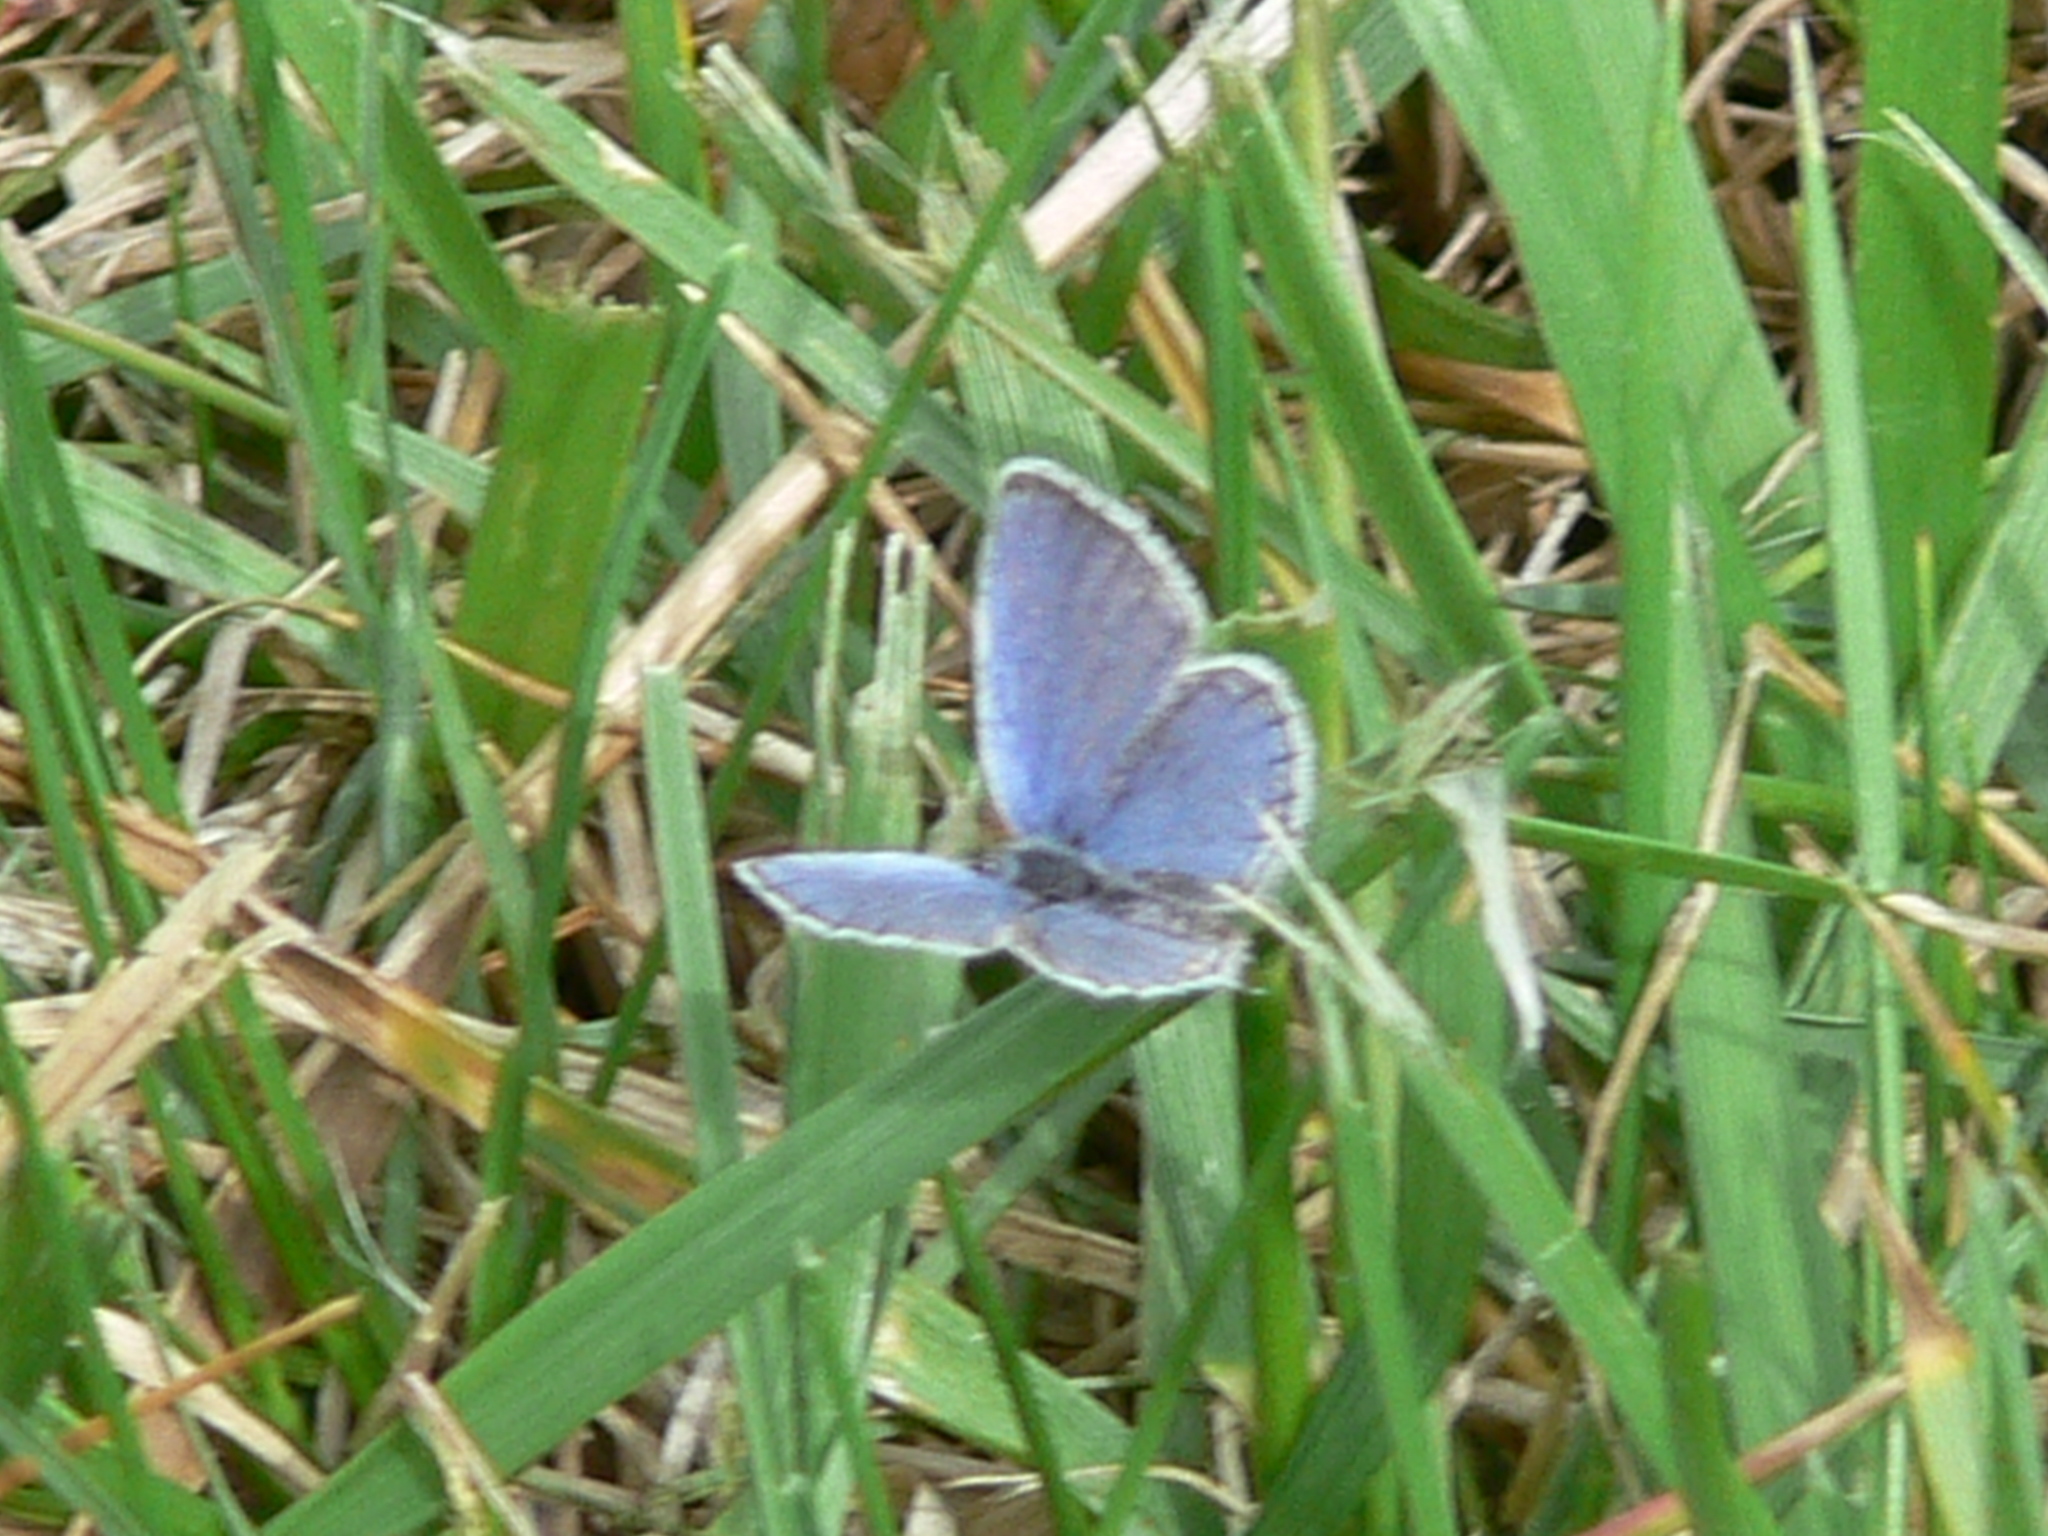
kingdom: Animalia
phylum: Arthropoda
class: Insecta
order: Lepidoptera
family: Lycaenidae
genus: Elkalyce
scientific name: Elkalyce comyntas
